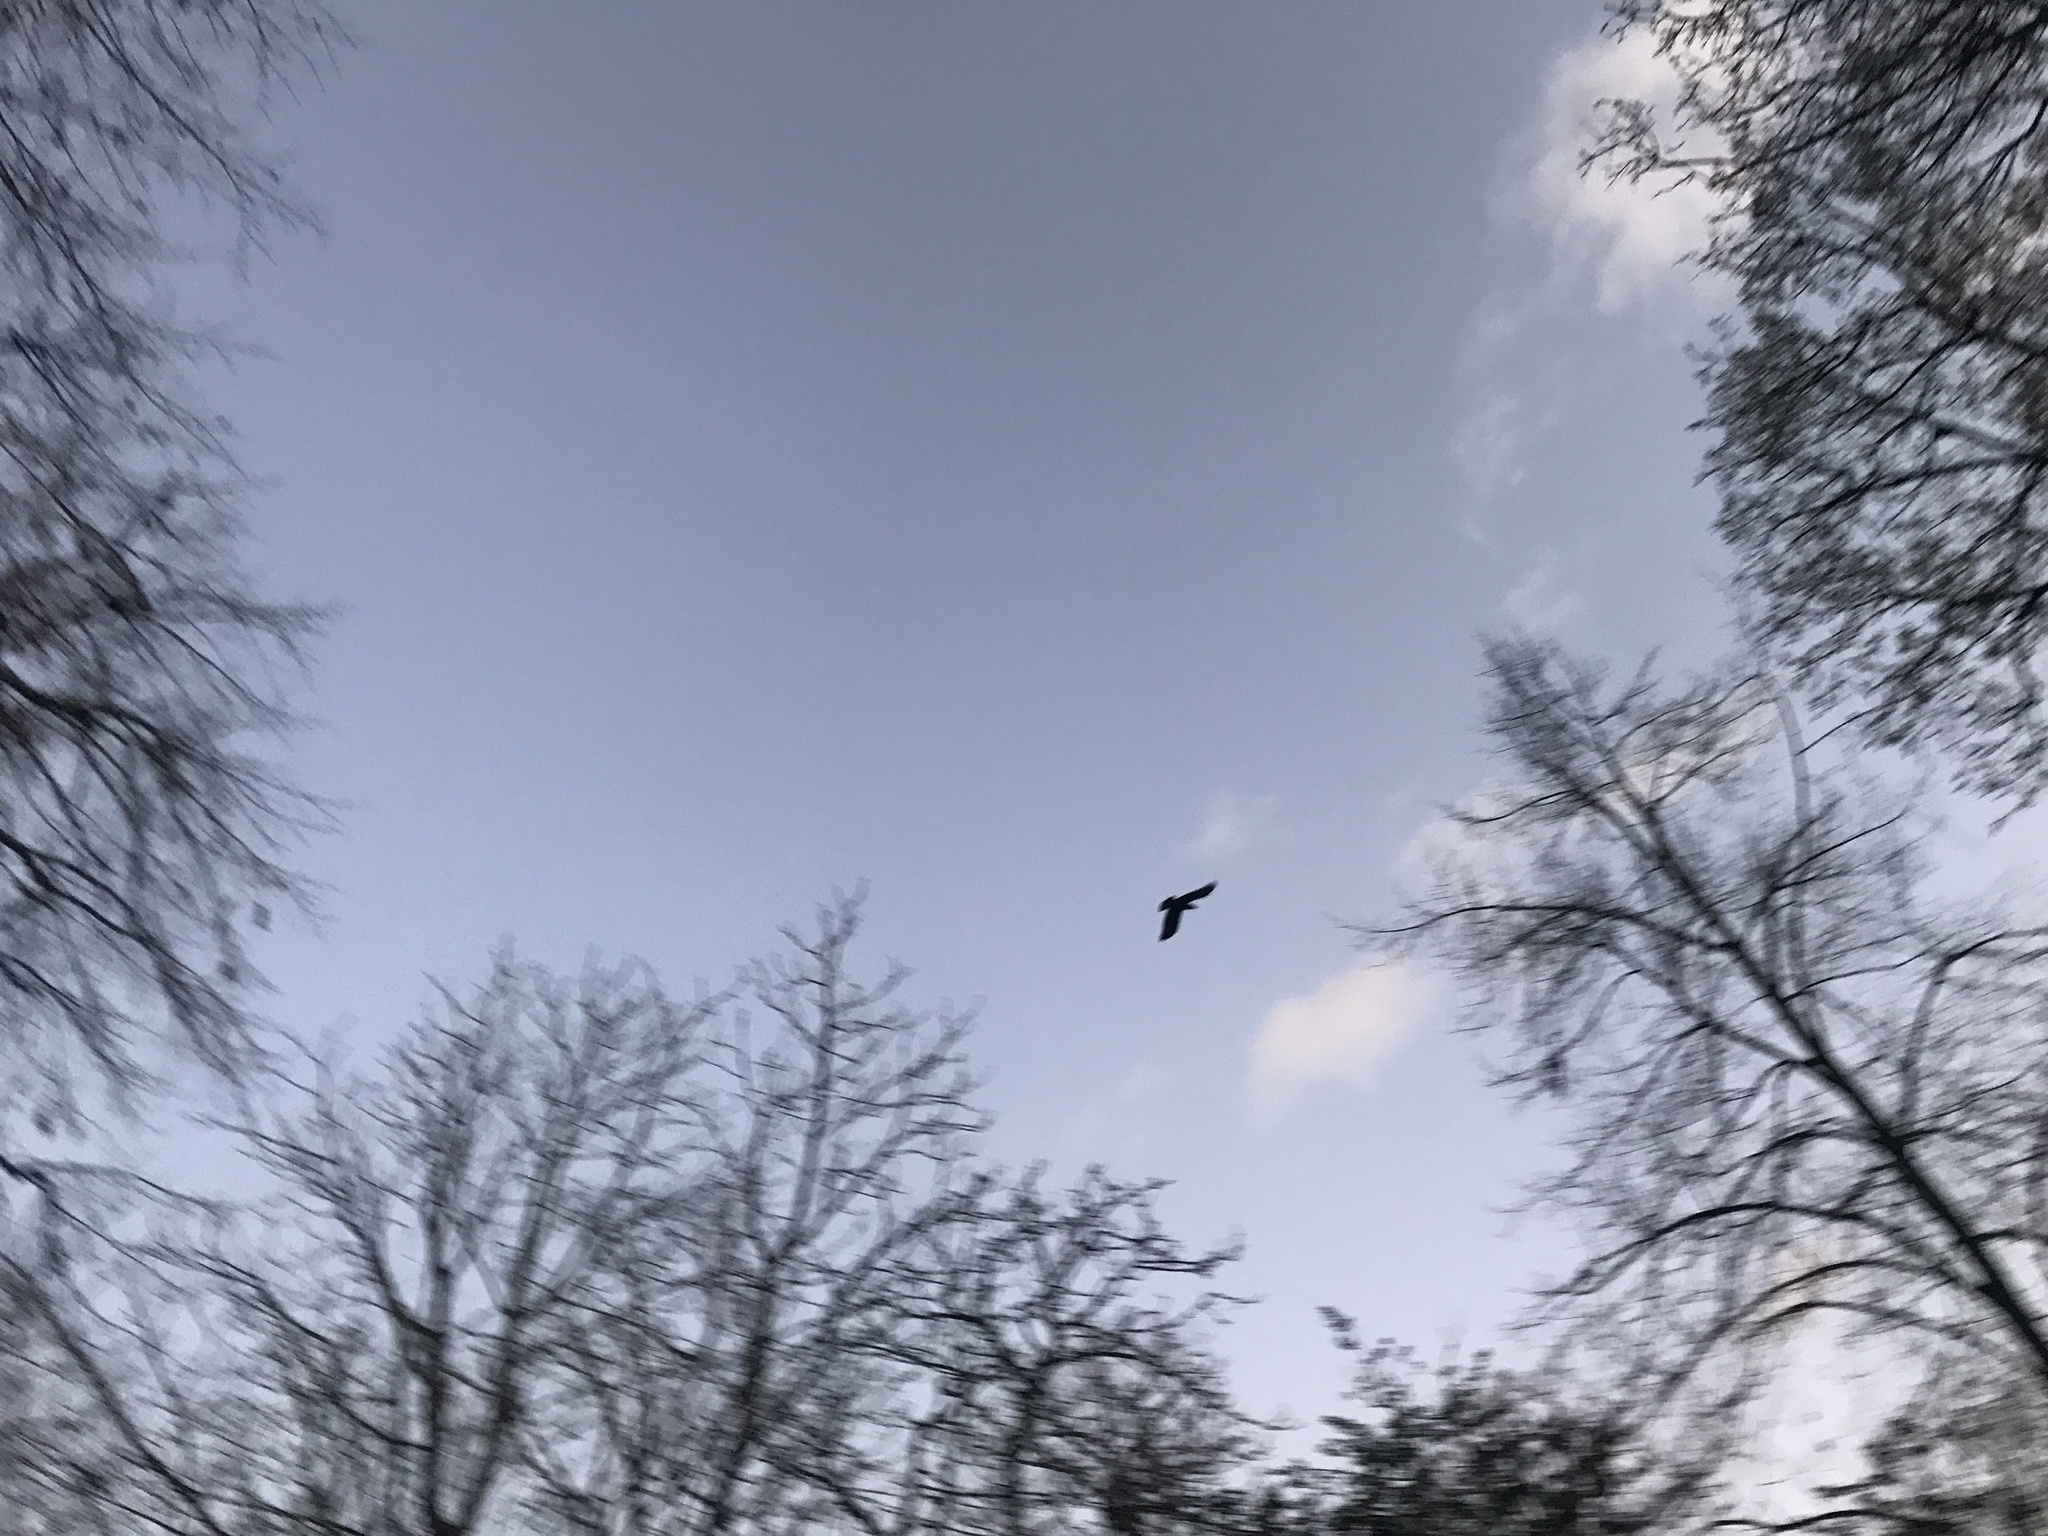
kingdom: Animalia
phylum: Chordata
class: Aves
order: Passeriformes
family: Corvidae
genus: Corvus
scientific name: Corvus corone
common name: Carrion crow
